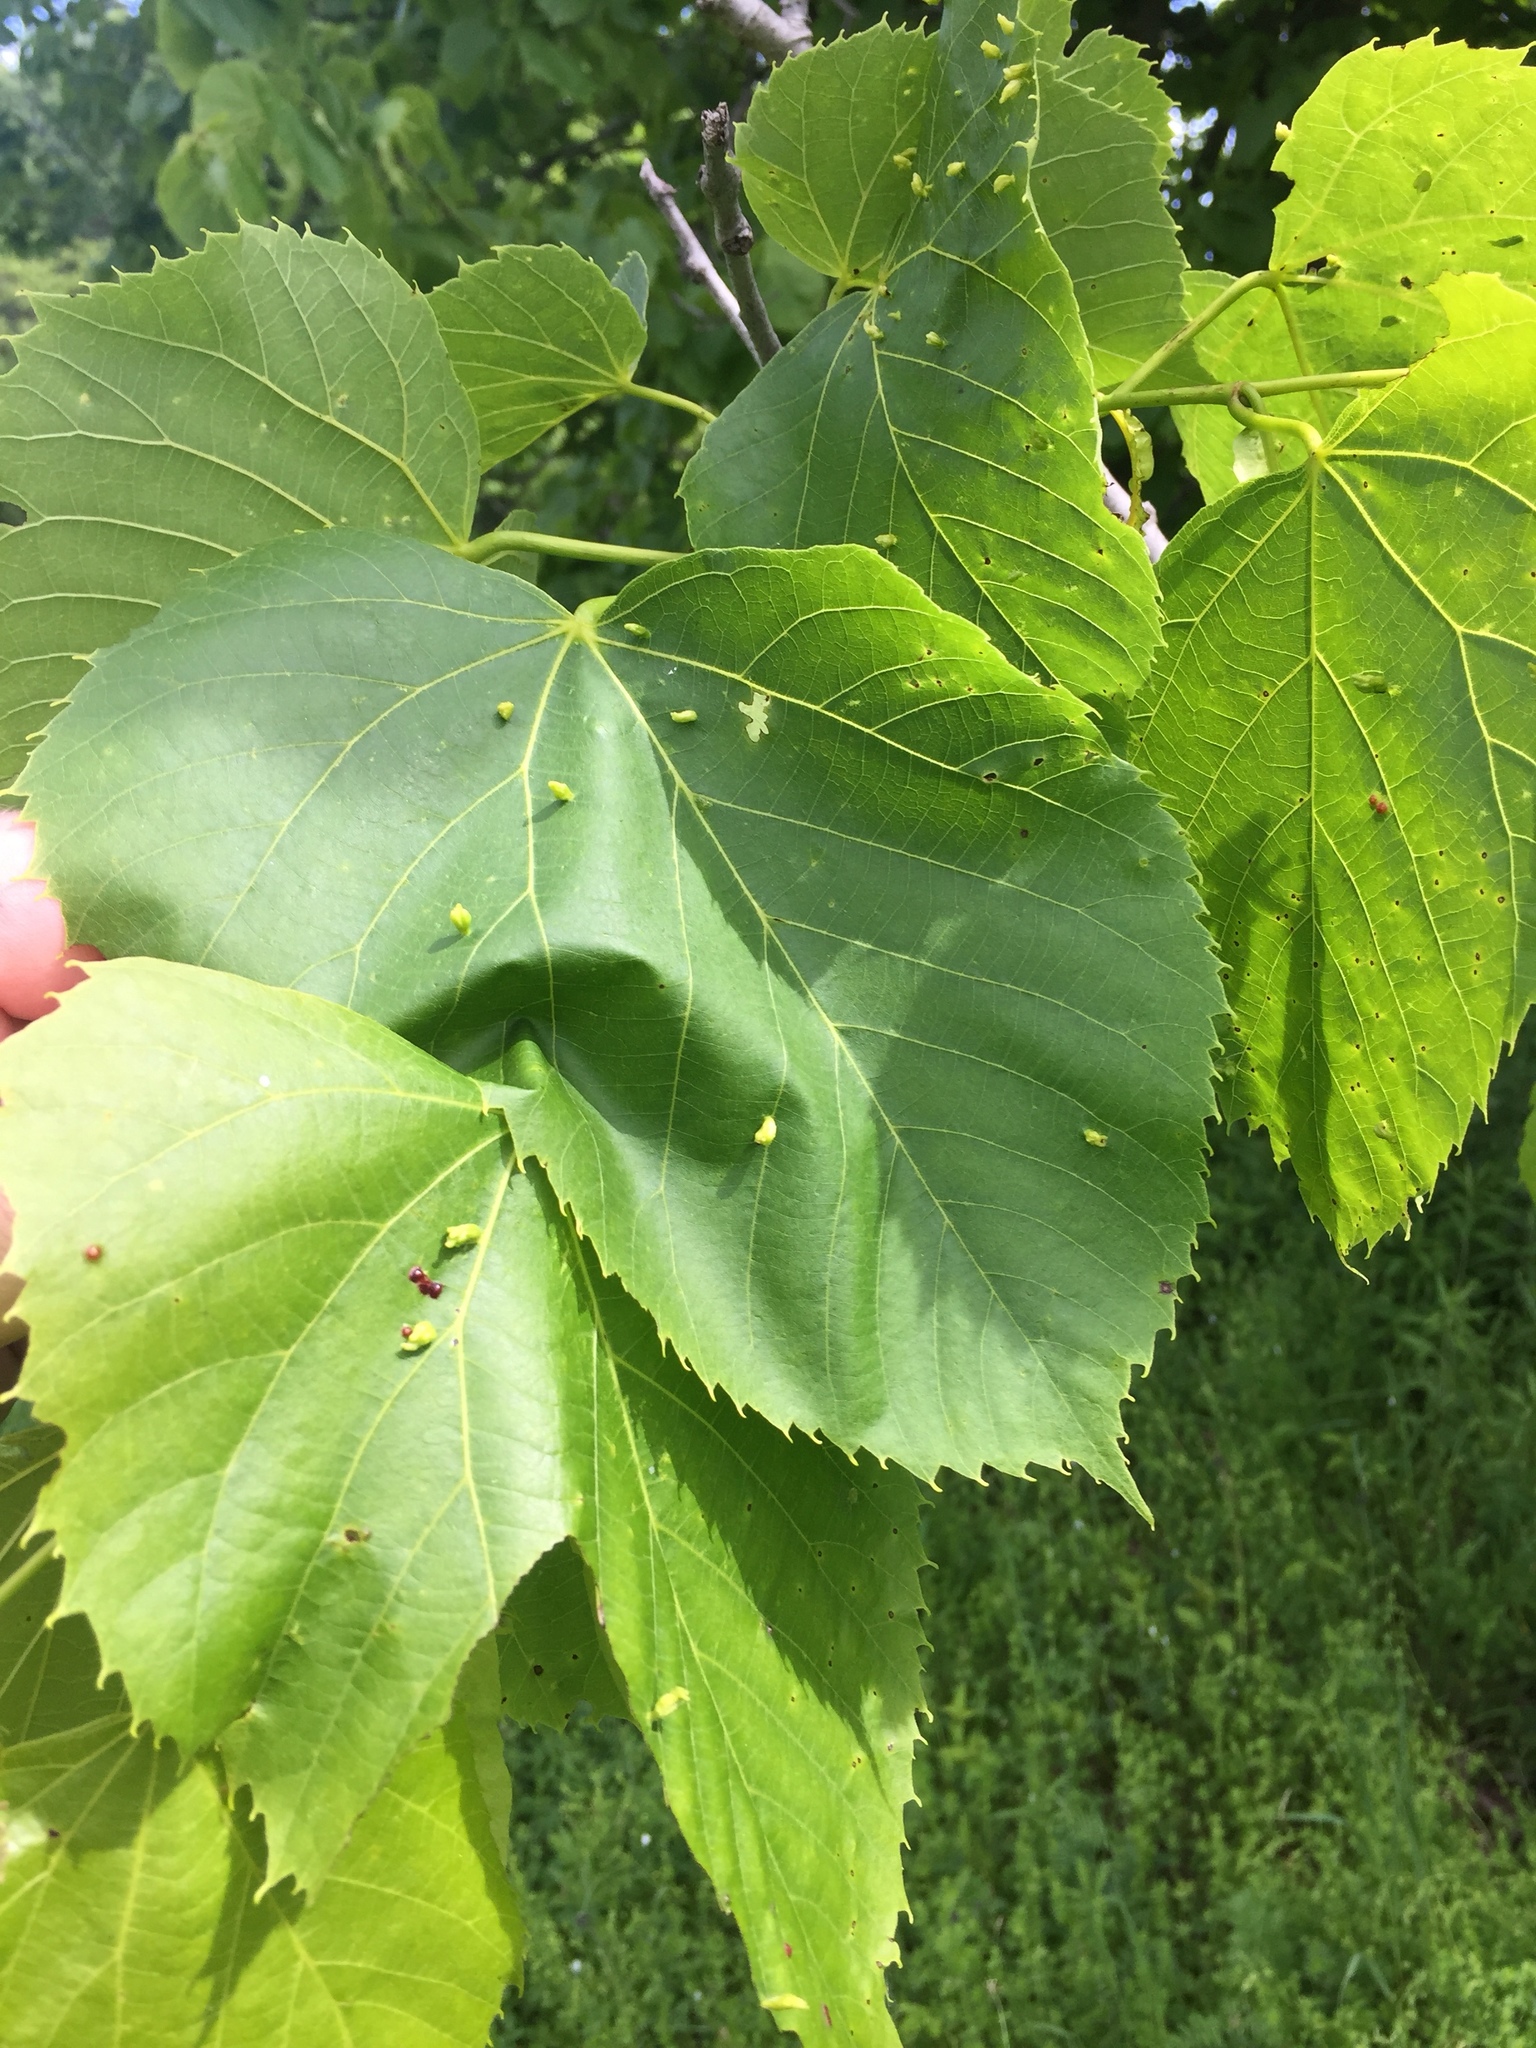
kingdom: Animalia
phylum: Arthropoda
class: Arachnida
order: Trombidiformes
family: Eriophyidae
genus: Eriophyes
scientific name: Eriophyes tiliae
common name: Red nail gall mite
